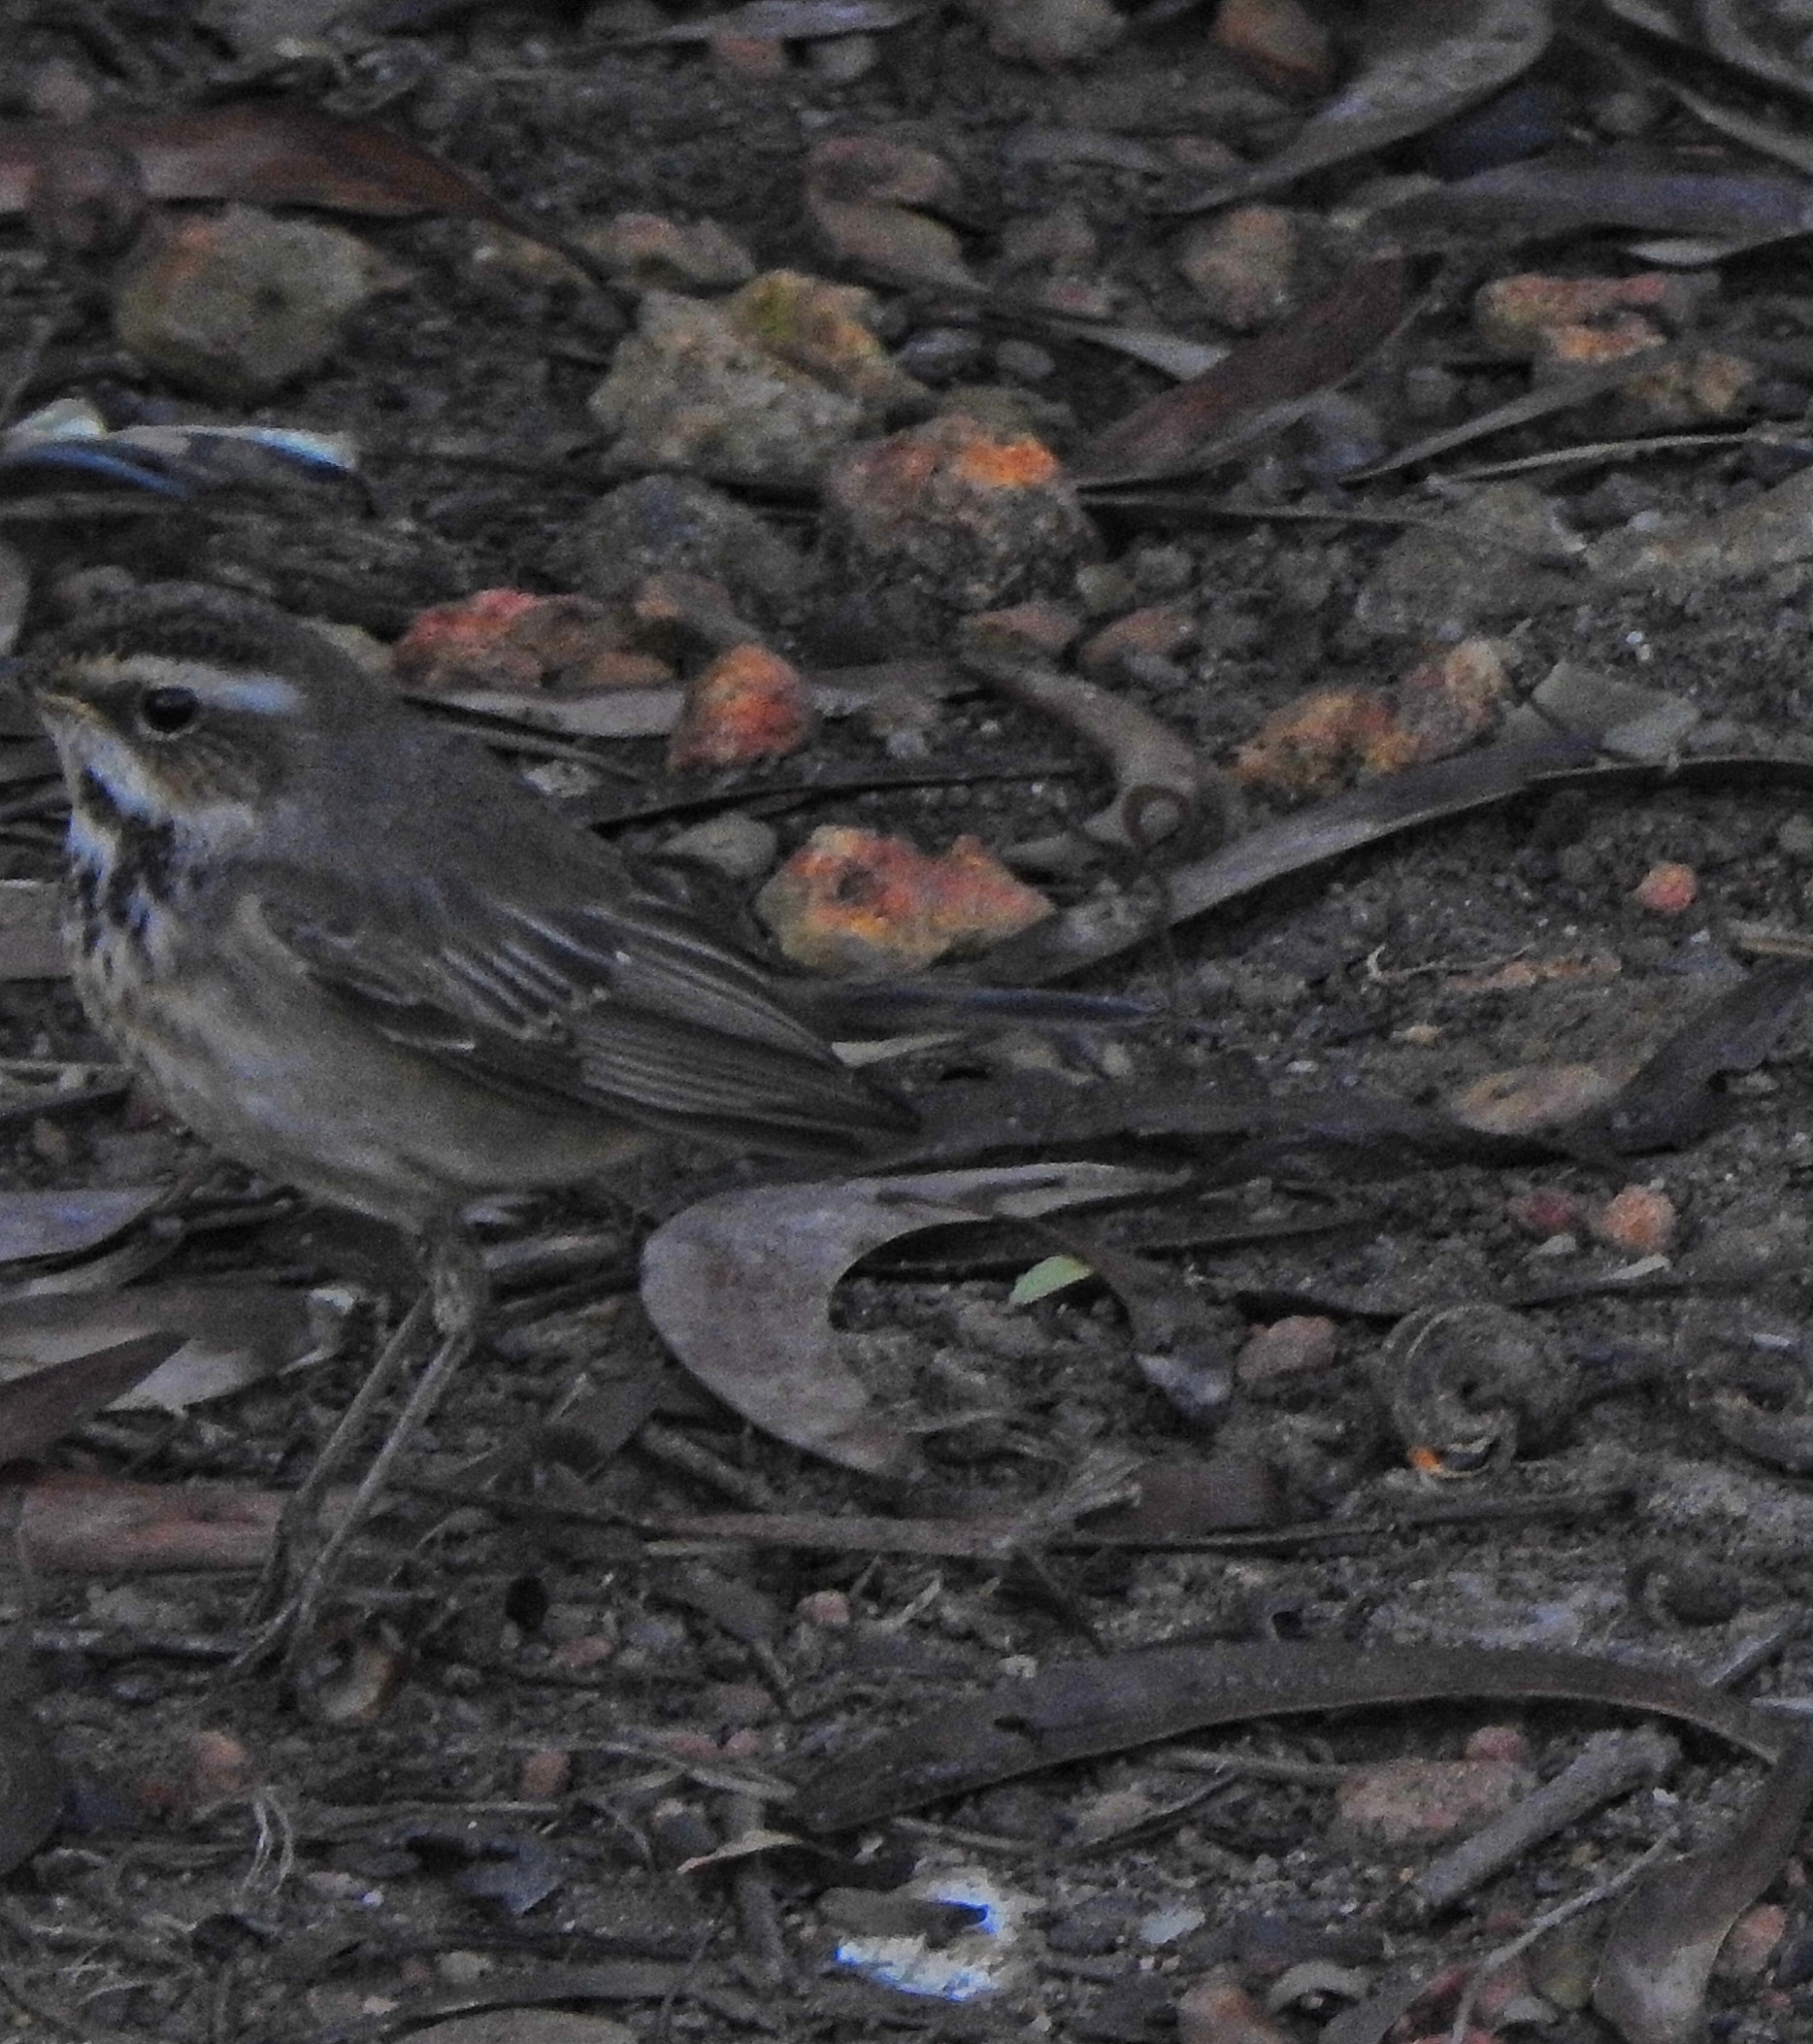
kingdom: Animalia
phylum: Chordata
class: Aves
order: Passeriformes
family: Muscicapidae
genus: Luscinia
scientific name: Luscinia svecica
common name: Bluethroat
